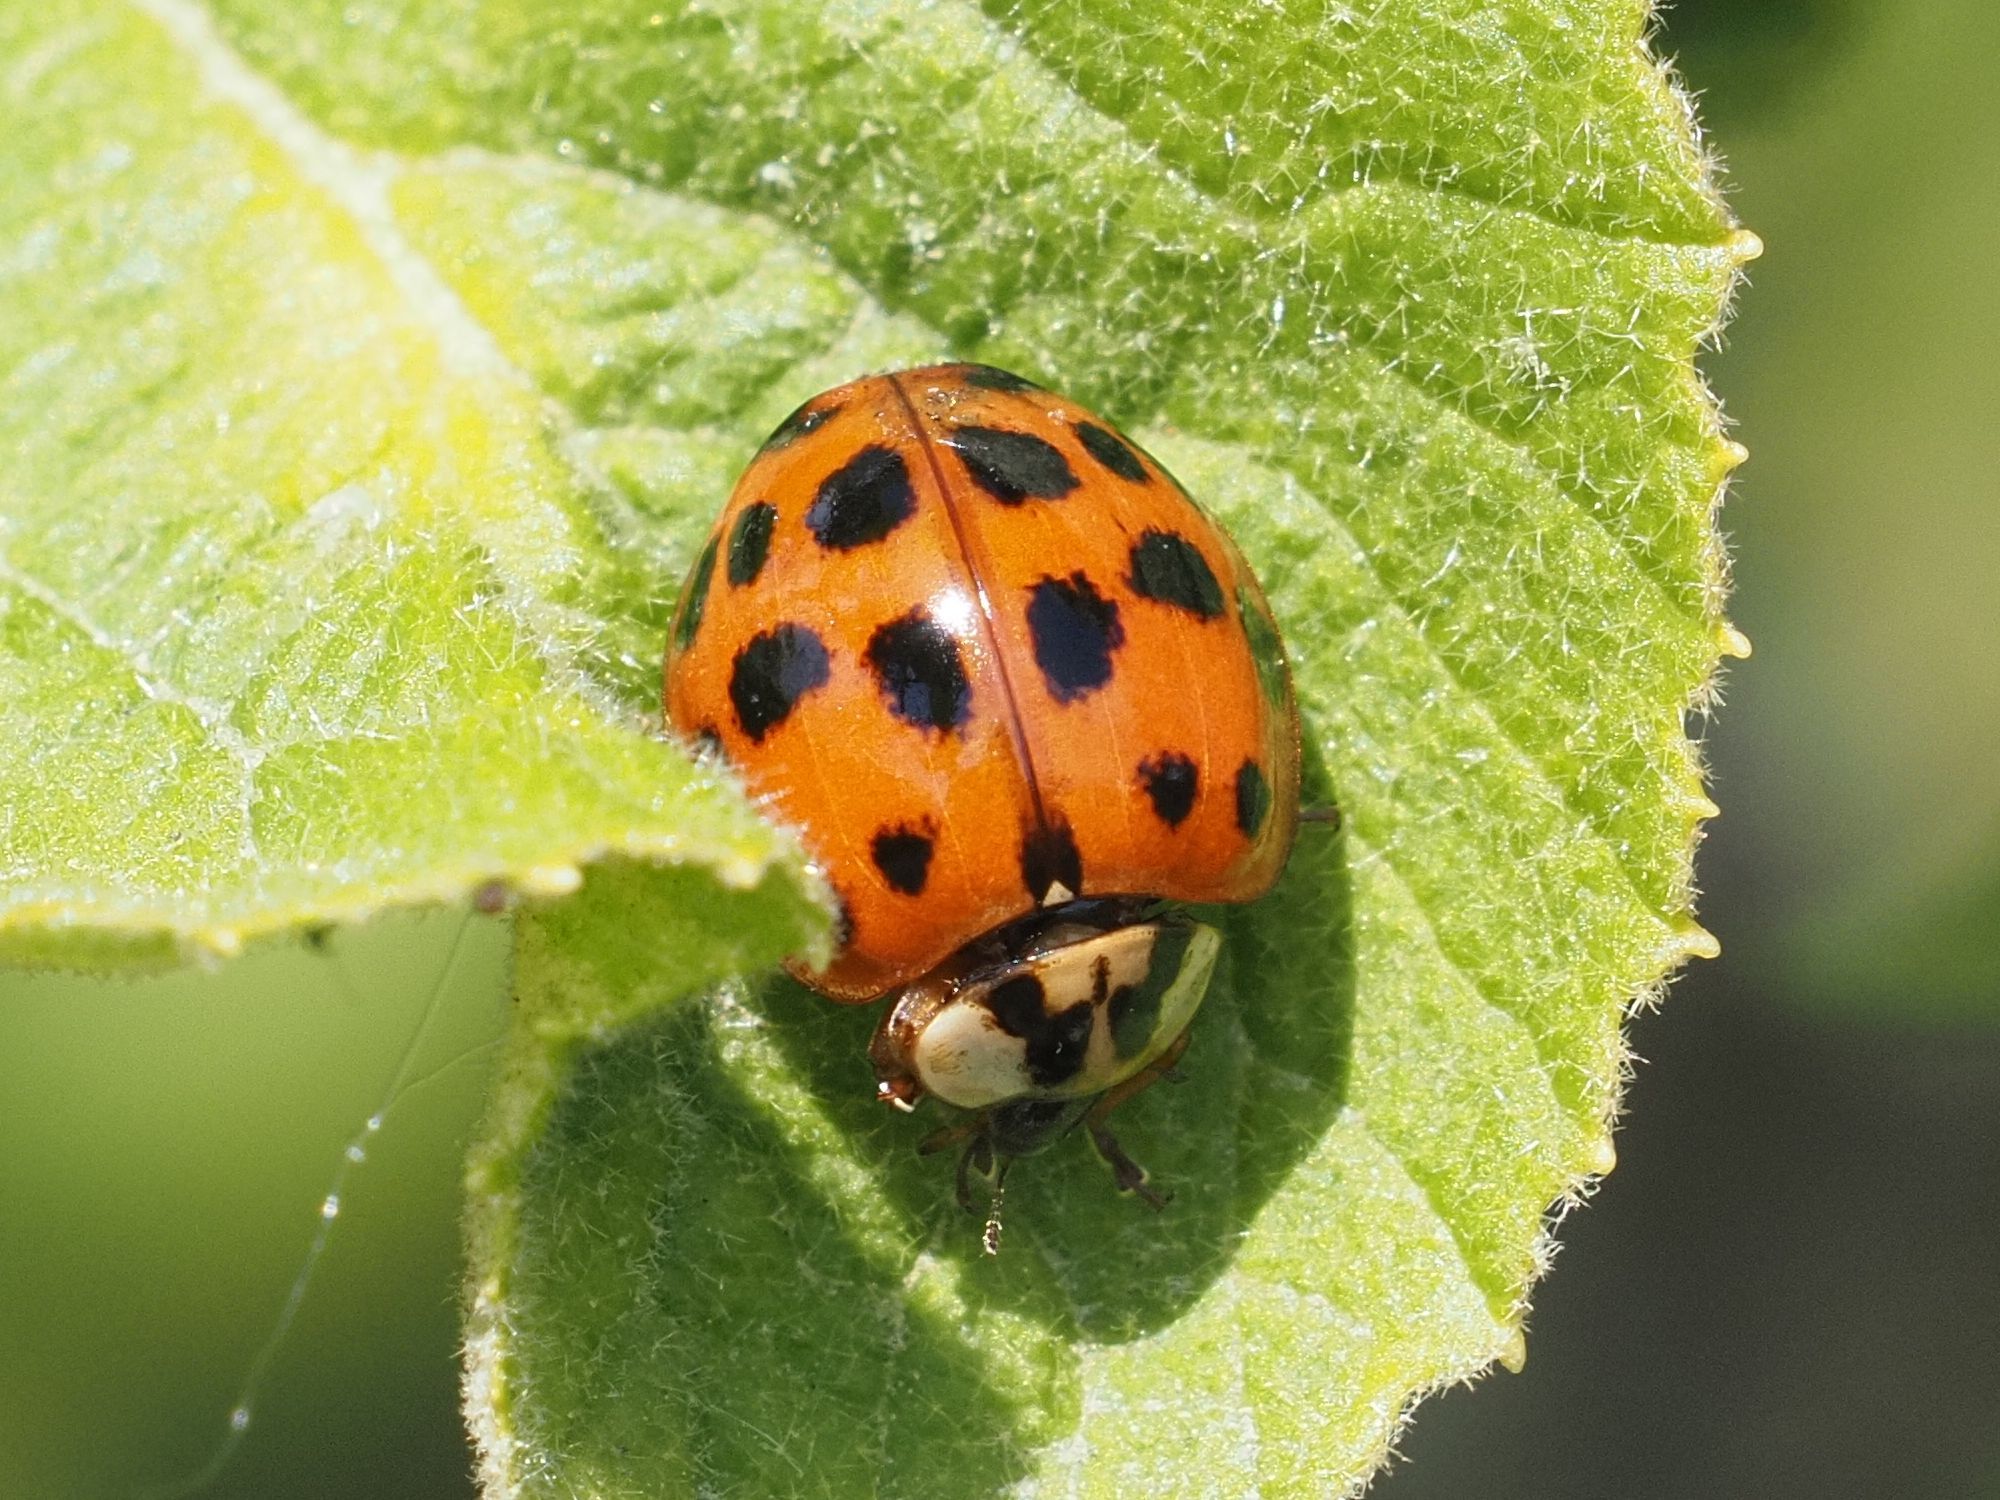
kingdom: Animalia
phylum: Arthropoda
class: Insecta
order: Coleoptera
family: Coccinellidae
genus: Harmonia
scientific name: Harmonia axyridis
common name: Harlequin ladybird
